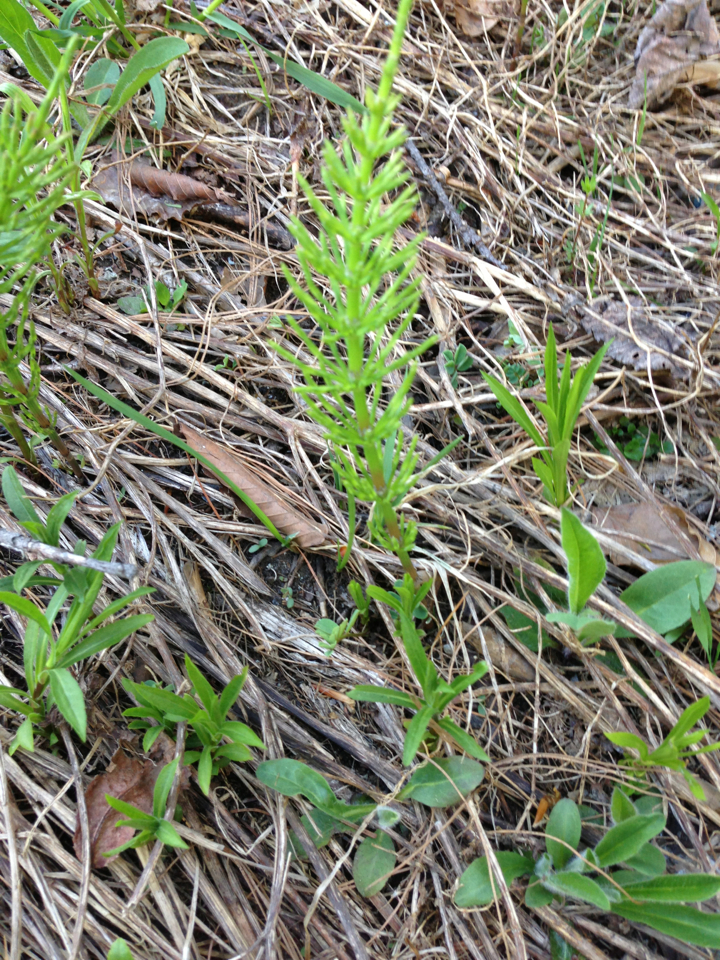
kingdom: Plantae
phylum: Tracheophyta
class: Polypodiopsida
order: Equisetales
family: Equisetaceae
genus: Equisetum
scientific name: Equisetum arvense
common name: Field horsetail
